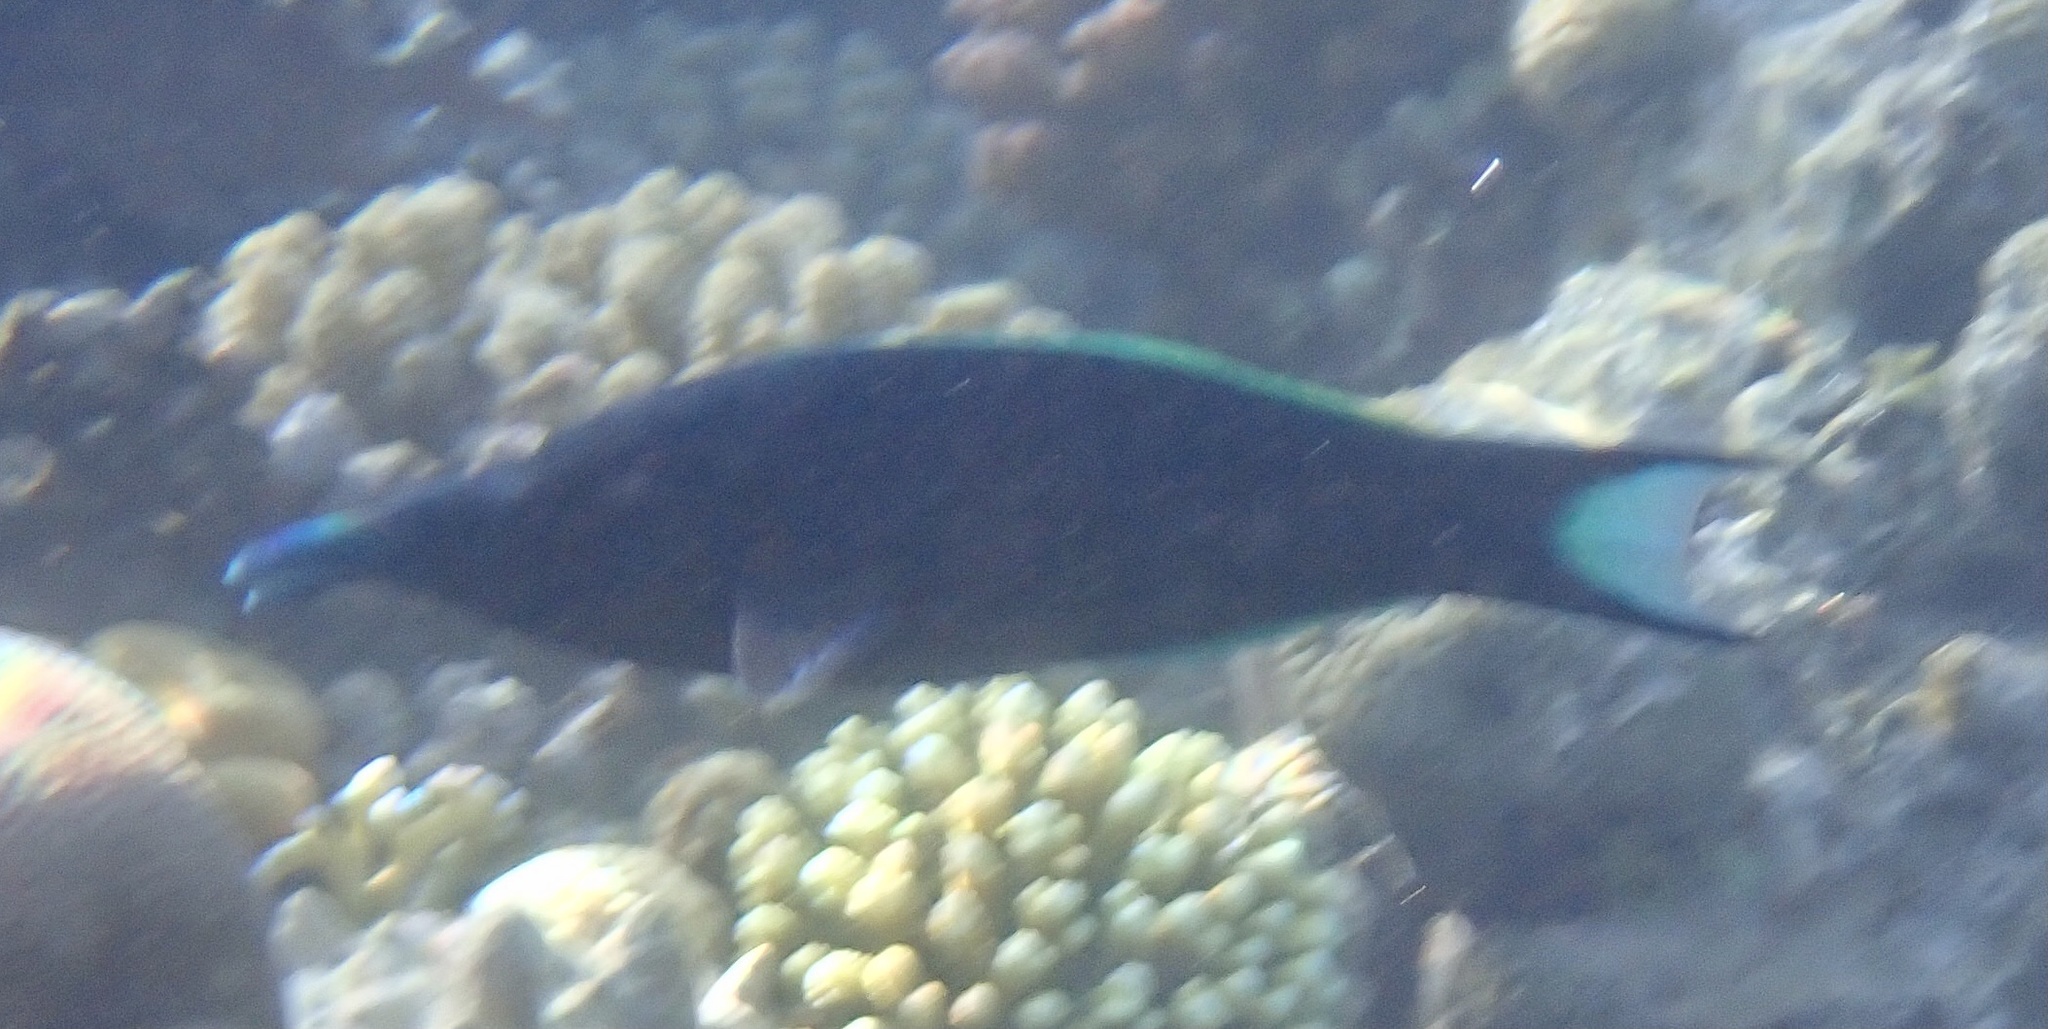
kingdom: Animalia
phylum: Chordata
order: Perciformes
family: Labridae
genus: Gomphosus
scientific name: Gomphosus klunzingeri
